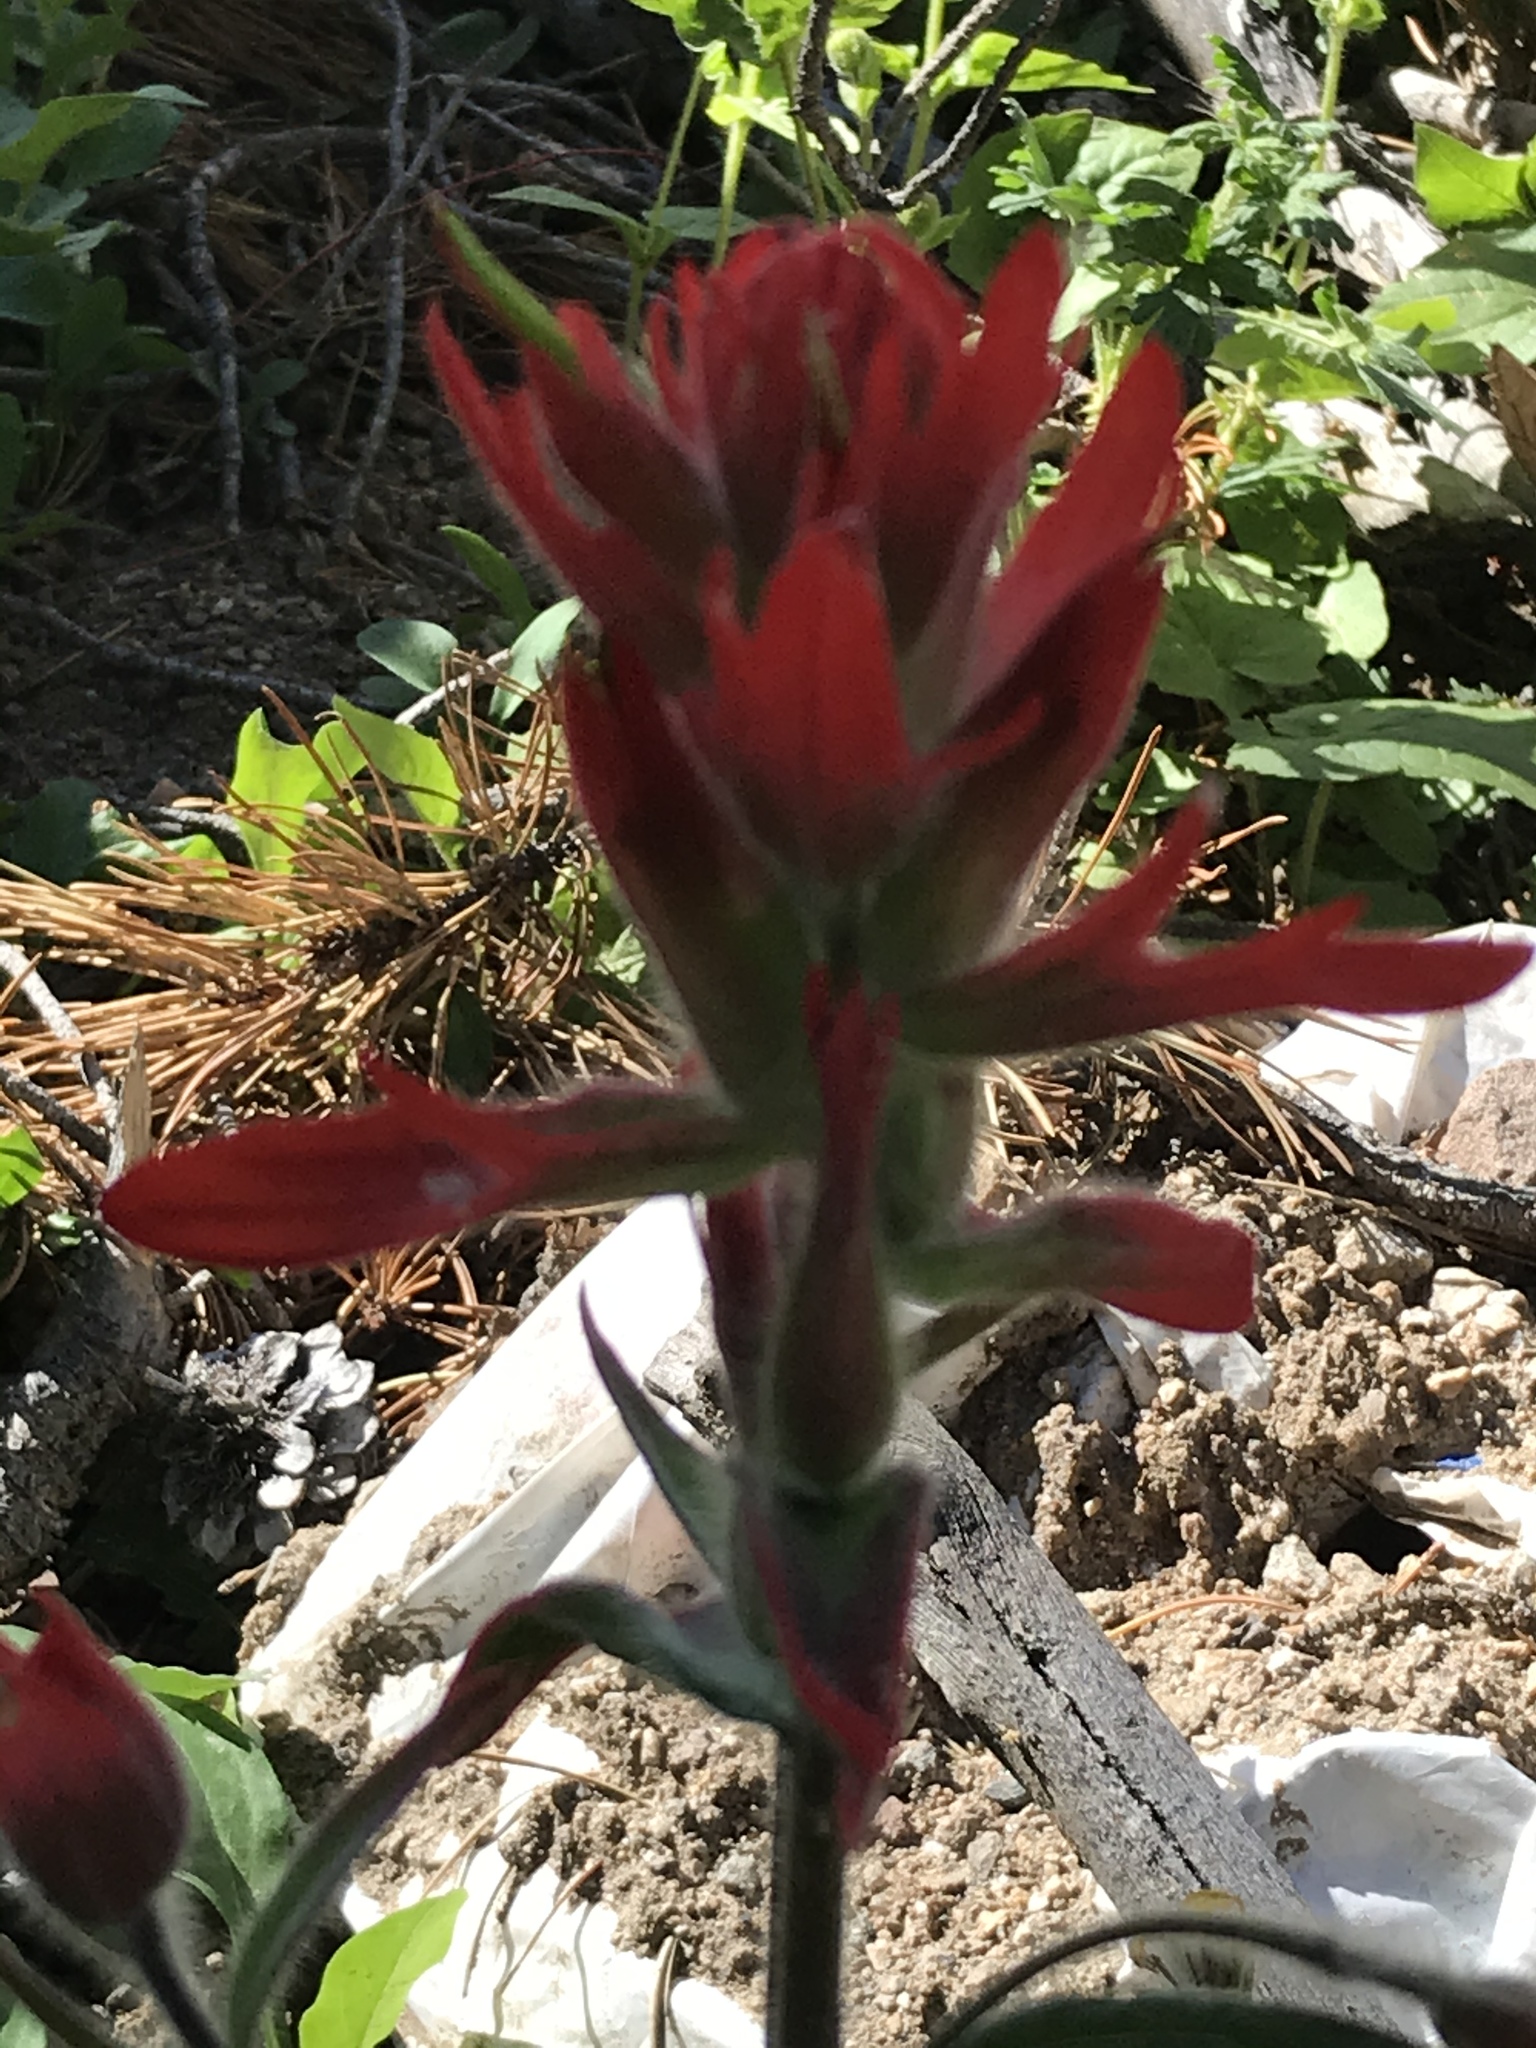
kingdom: Plantae
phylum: Tracheophyta
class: Magnoliopsida
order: Lamiales
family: Orobanchaceae
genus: Castilleja
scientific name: Castilleja miniata
